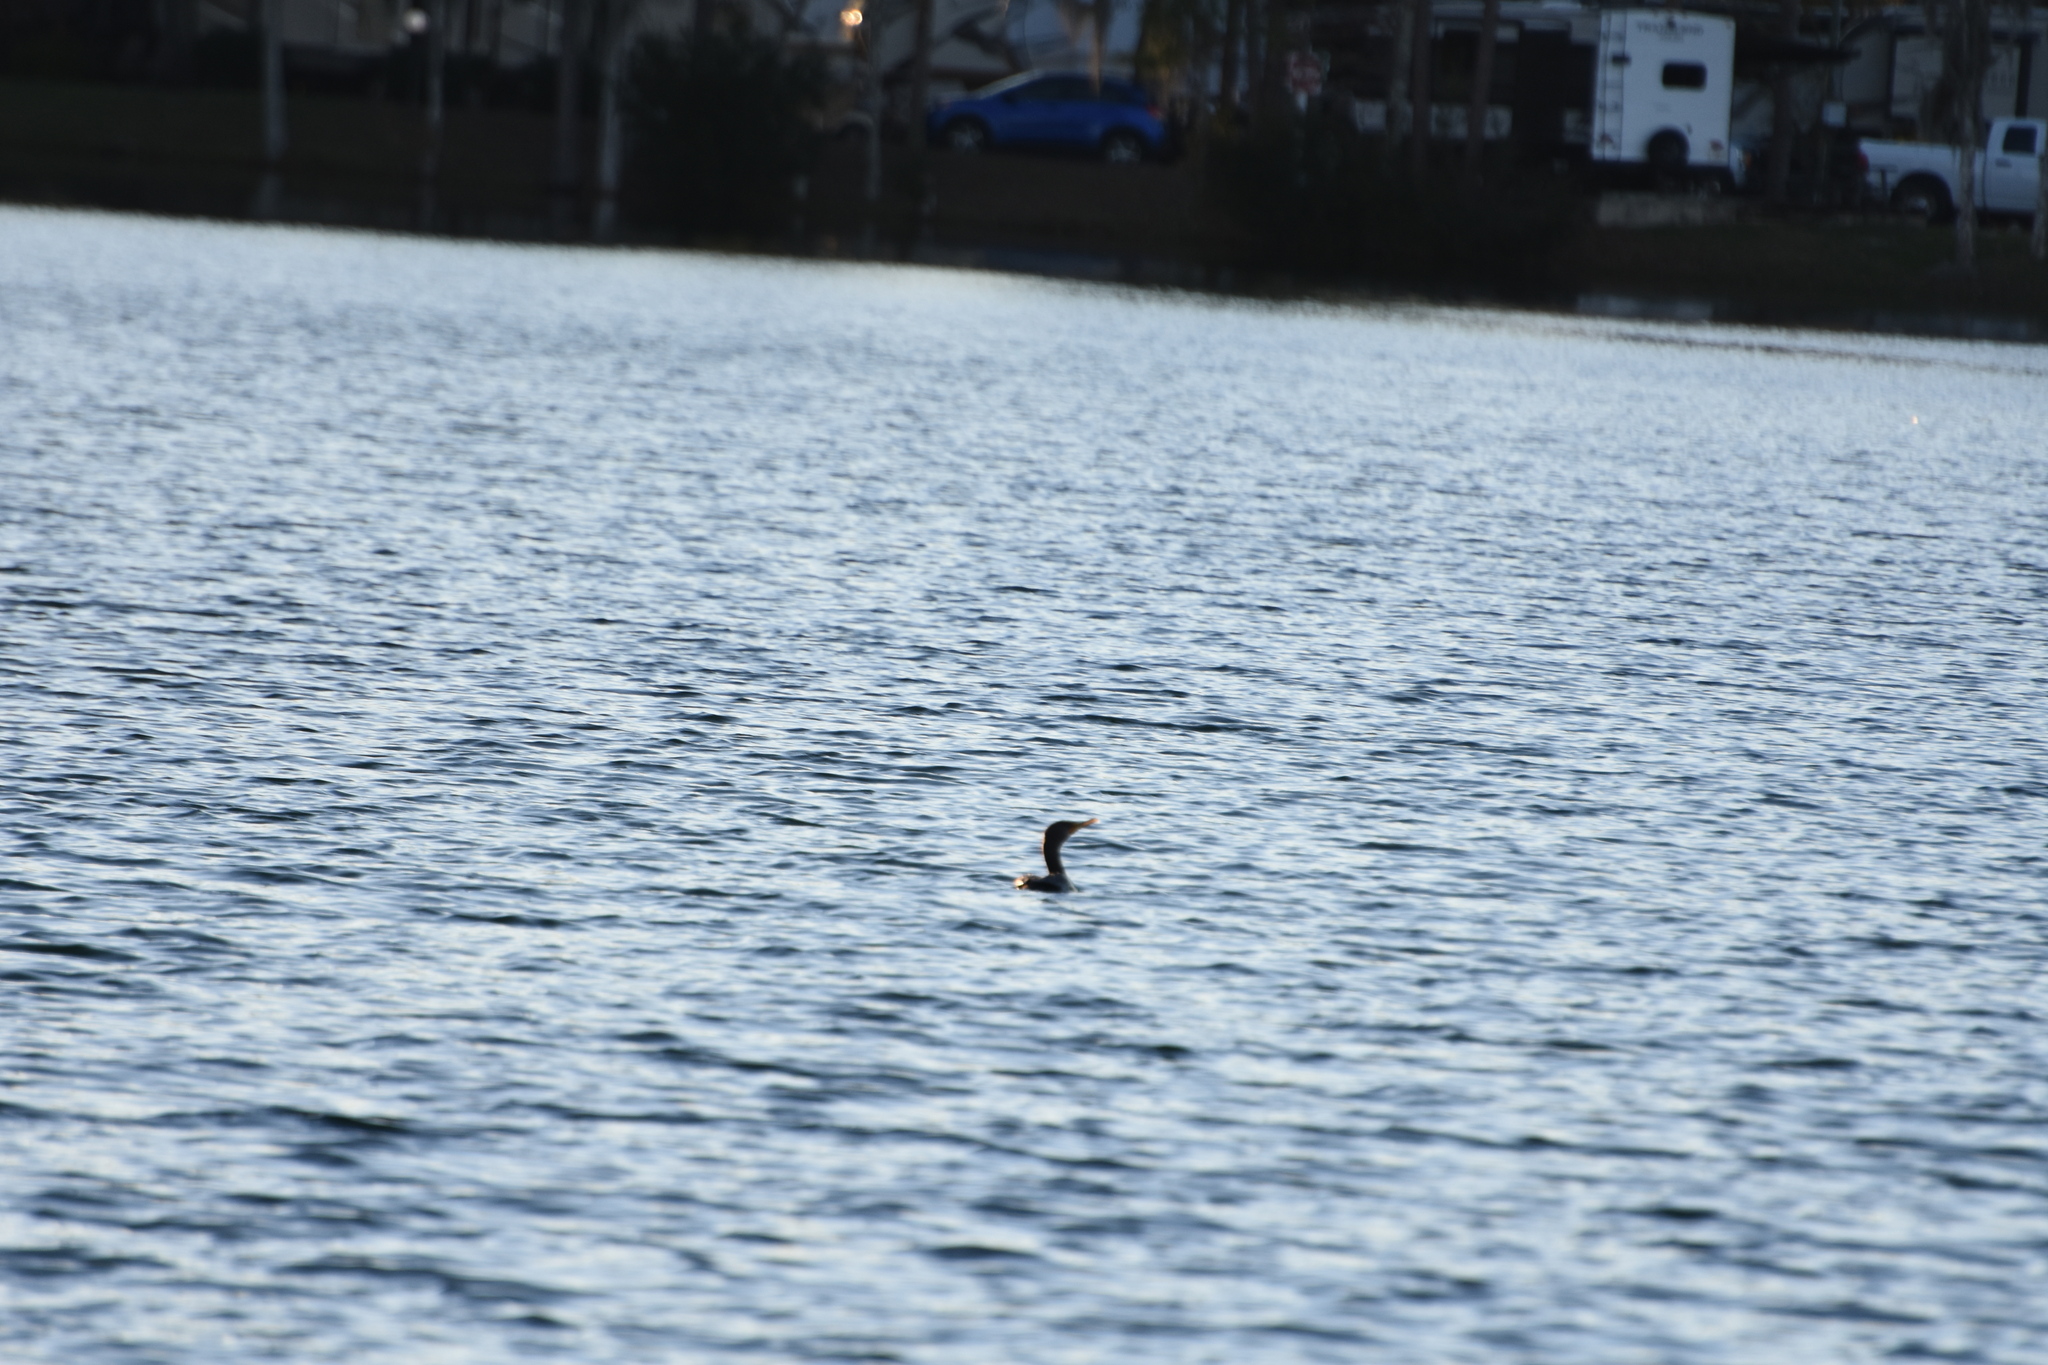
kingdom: Animalia
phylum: Chordata
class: Aves
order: Suliformes
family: Phalacrocoracidae
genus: Phalacrocorax
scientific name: Phalacrocorax auritus
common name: Double-crested cormorant
